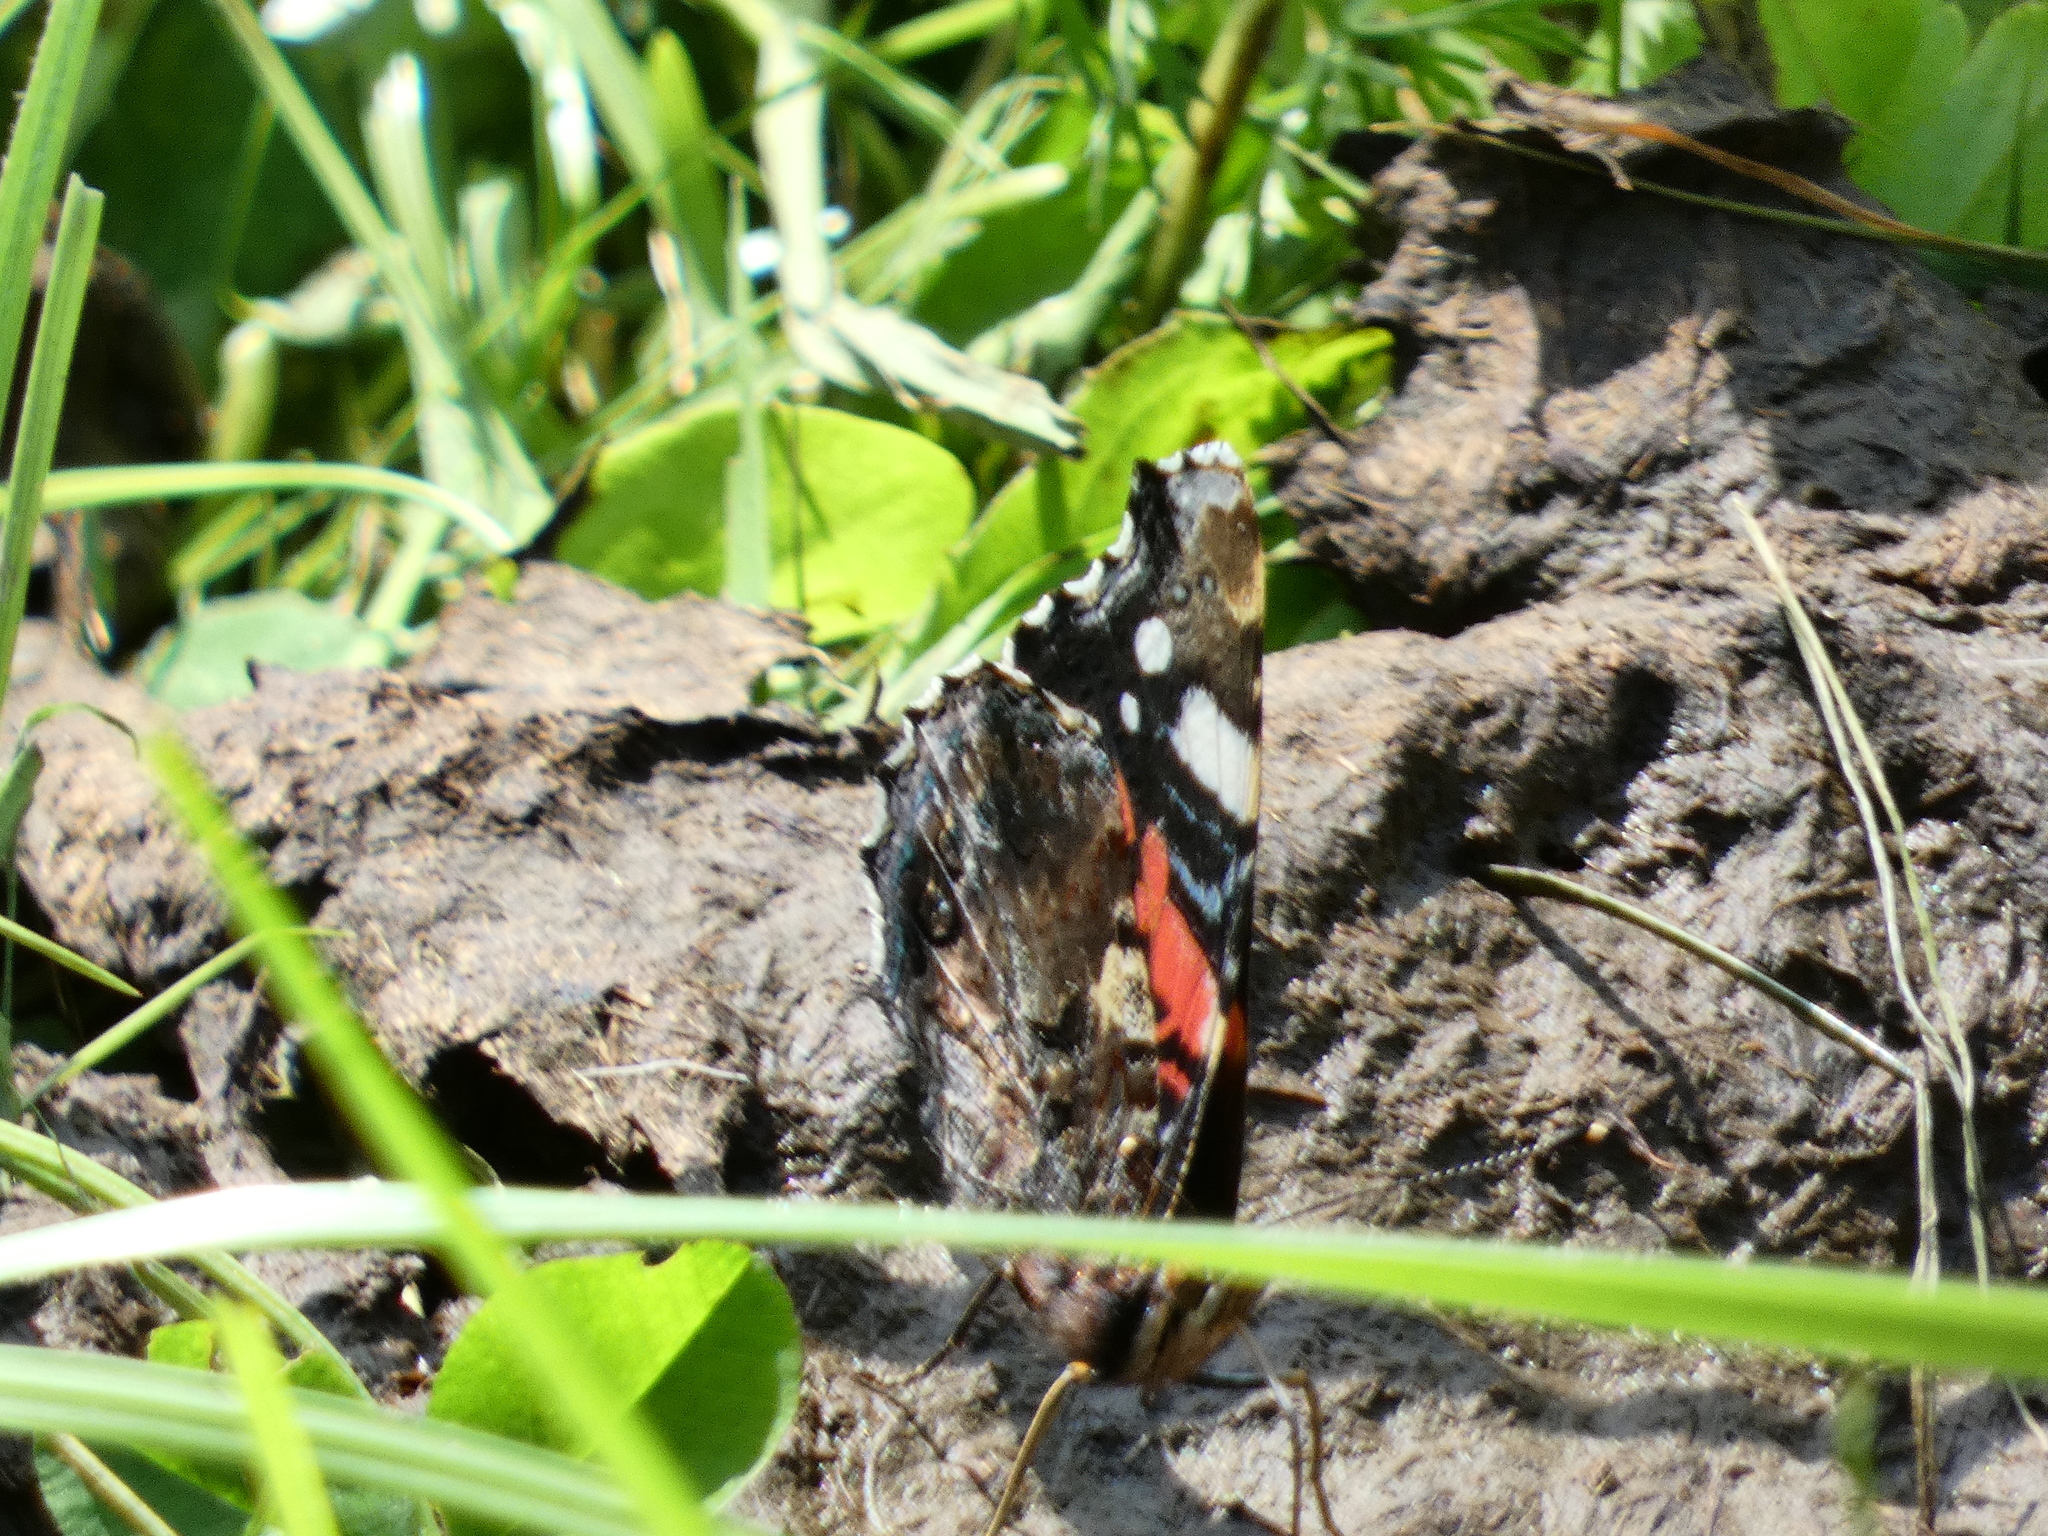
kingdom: Animalia
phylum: Arthropoda
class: Insecta
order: Lepidoptera
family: Nymphalidae
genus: Vanessa
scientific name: Vanessa atalanta
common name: Red admiral
